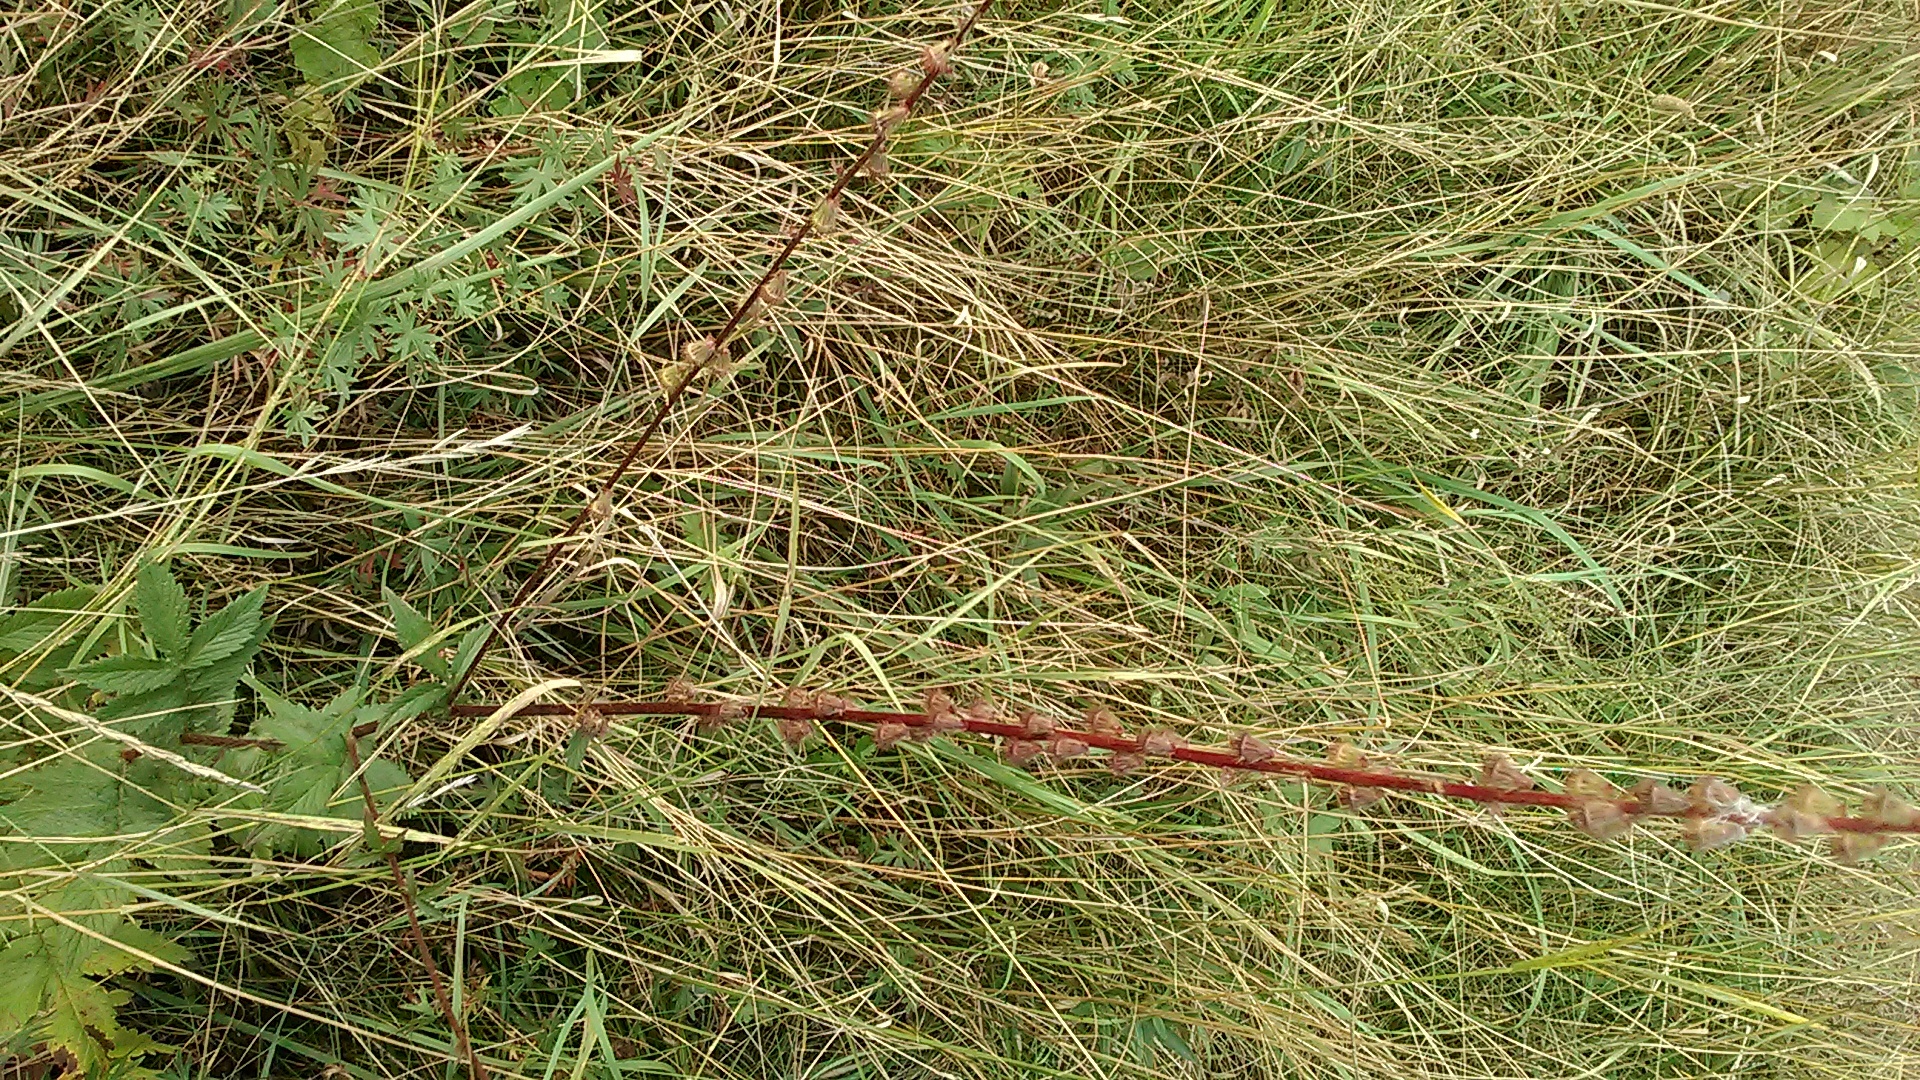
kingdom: Plantae
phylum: Tracheophyta
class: Magnoliopsida
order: Rosales
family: Rosaceae
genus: Agrimonia
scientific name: Agrimonia eupatoria
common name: Agrimony
